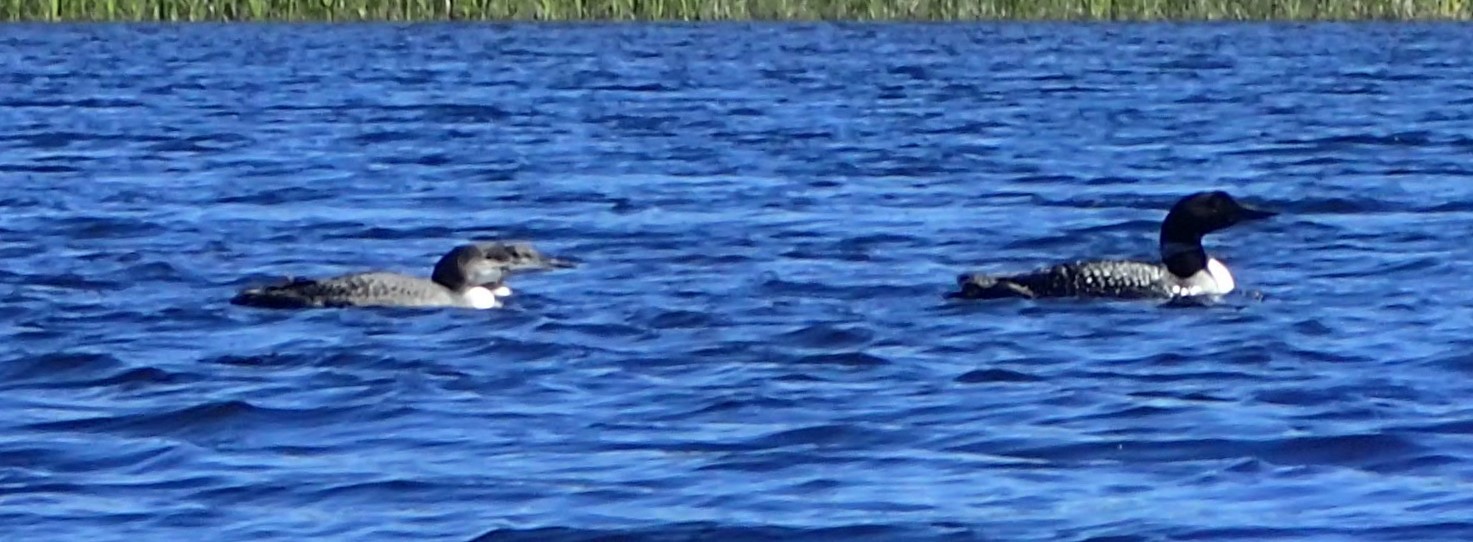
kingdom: Animalia
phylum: Chordata
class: Aves
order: Gaviiformes
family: Gaviidae
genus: Gavia
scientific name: Gavia immer
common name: Common loon
